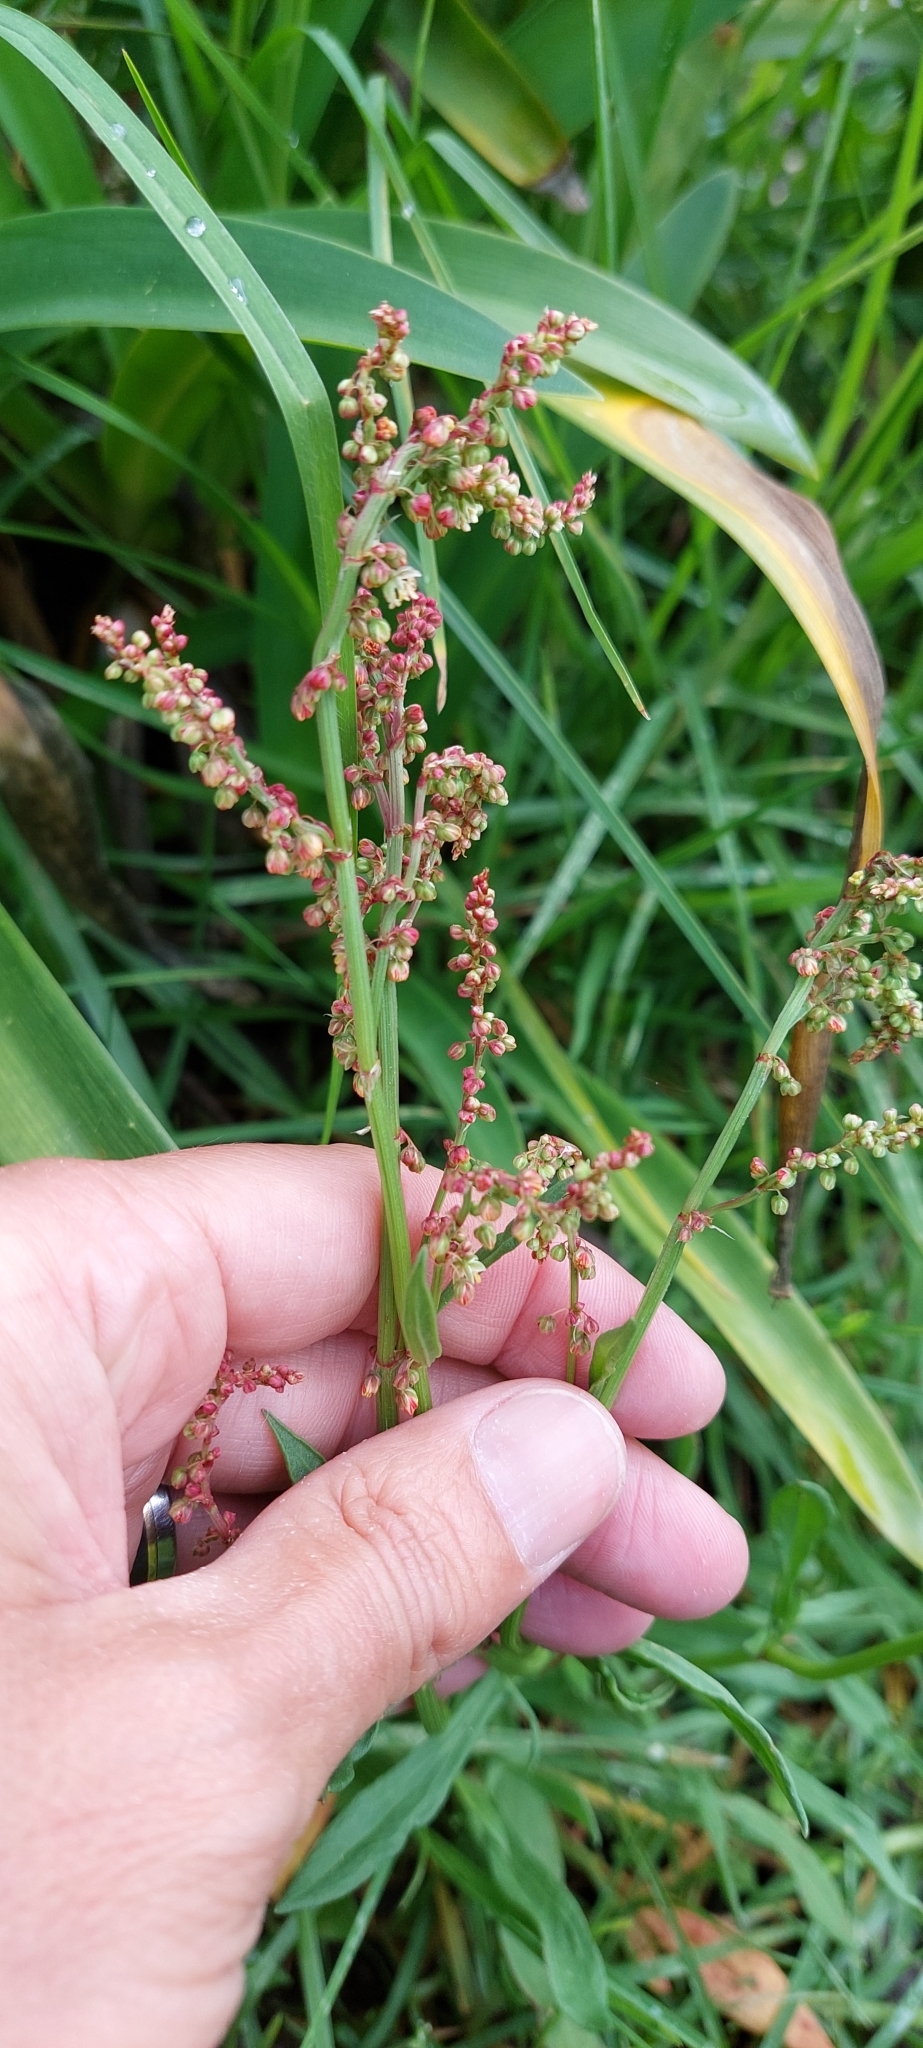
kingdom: Plantae
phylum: Tracheophyta
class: Magnoliopsida
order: Caryophyllales
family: Polygonaceae
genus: Rumex
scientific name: Rumex acetosella
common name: Common sheep sorrel
